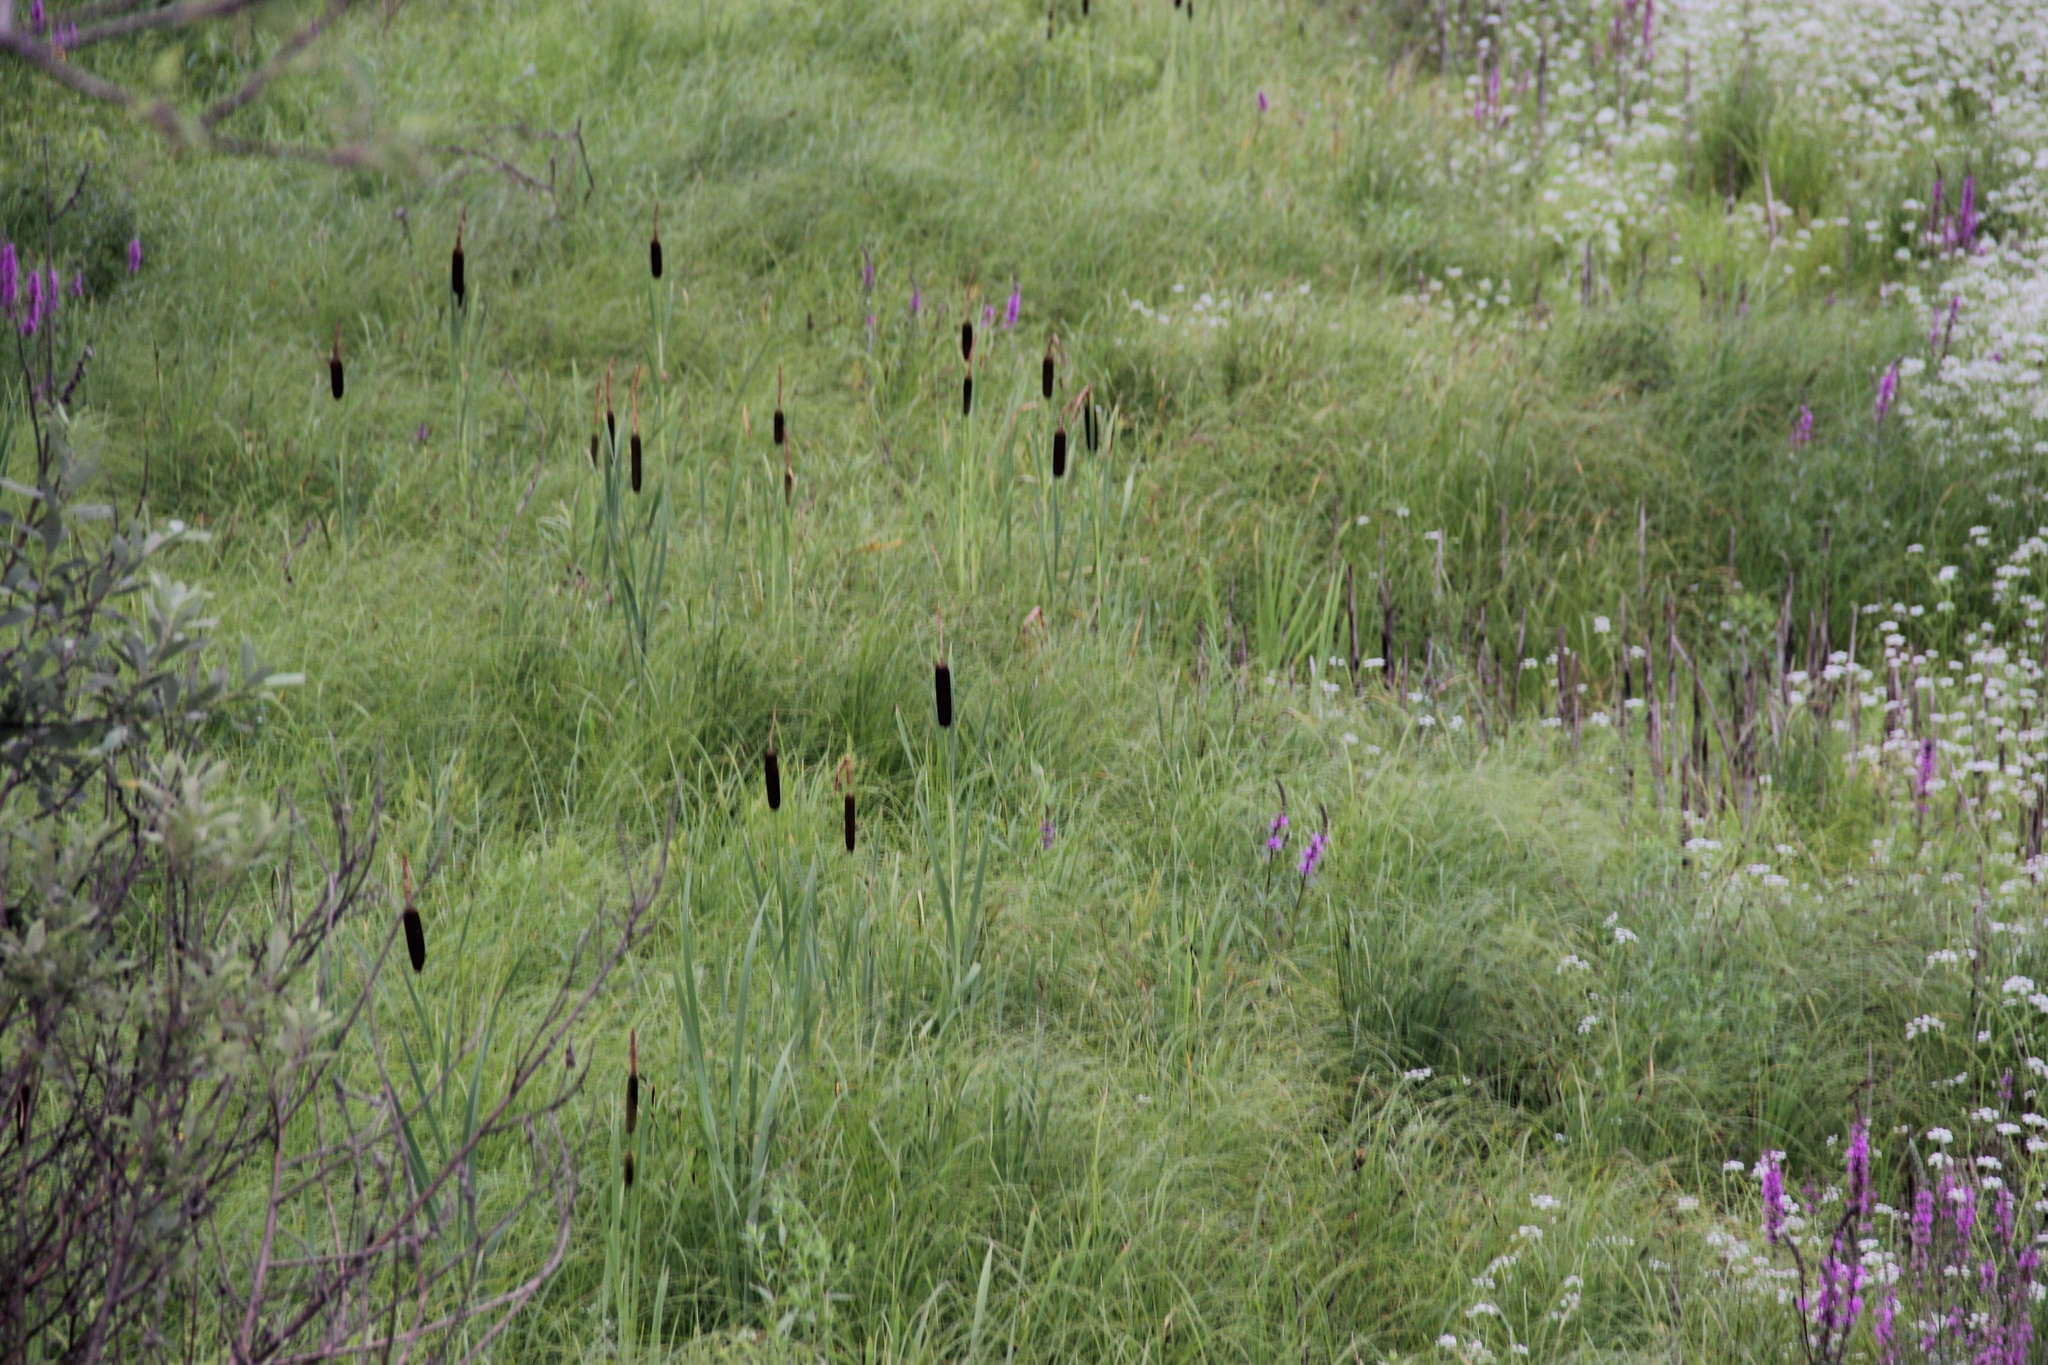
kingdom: Plantae
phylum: Tracheophyta
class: Liliopsida
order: Poales
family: Typhaceae
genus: Typha
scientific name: Typha latifolia
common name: Broadleaf cattail
